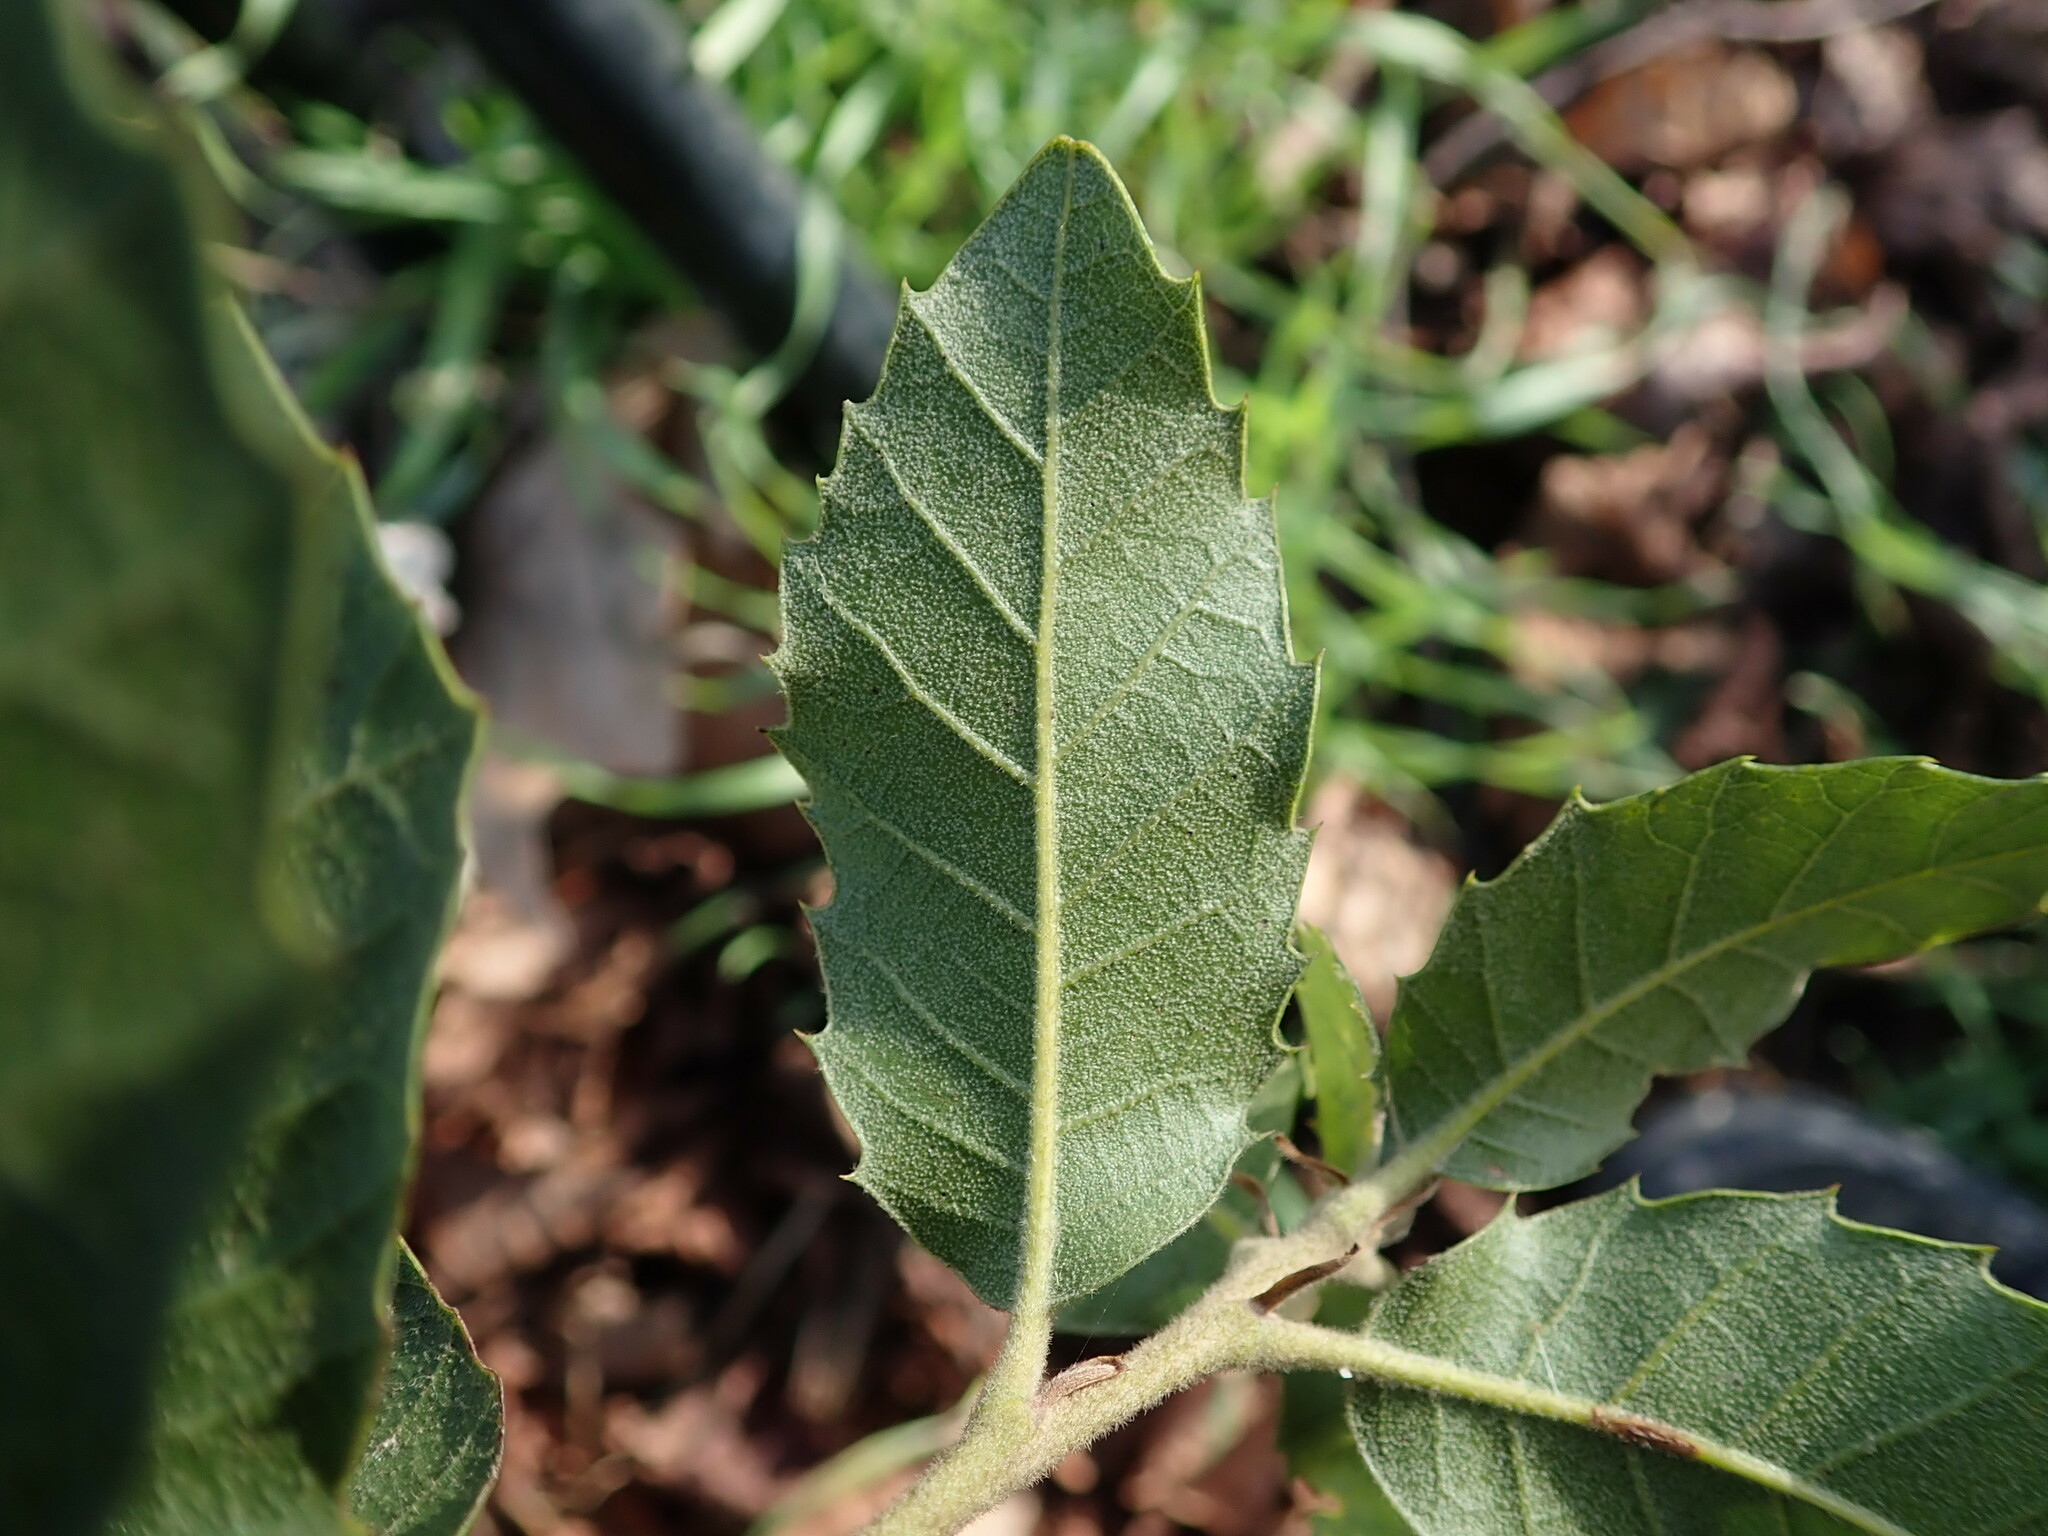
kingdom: Plantae
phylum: Tracheophyta
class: Magnoliopsida
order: Fagales
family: Fagaceae
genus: Quercus
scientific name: Quercus ilex
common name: Evergreen oak
